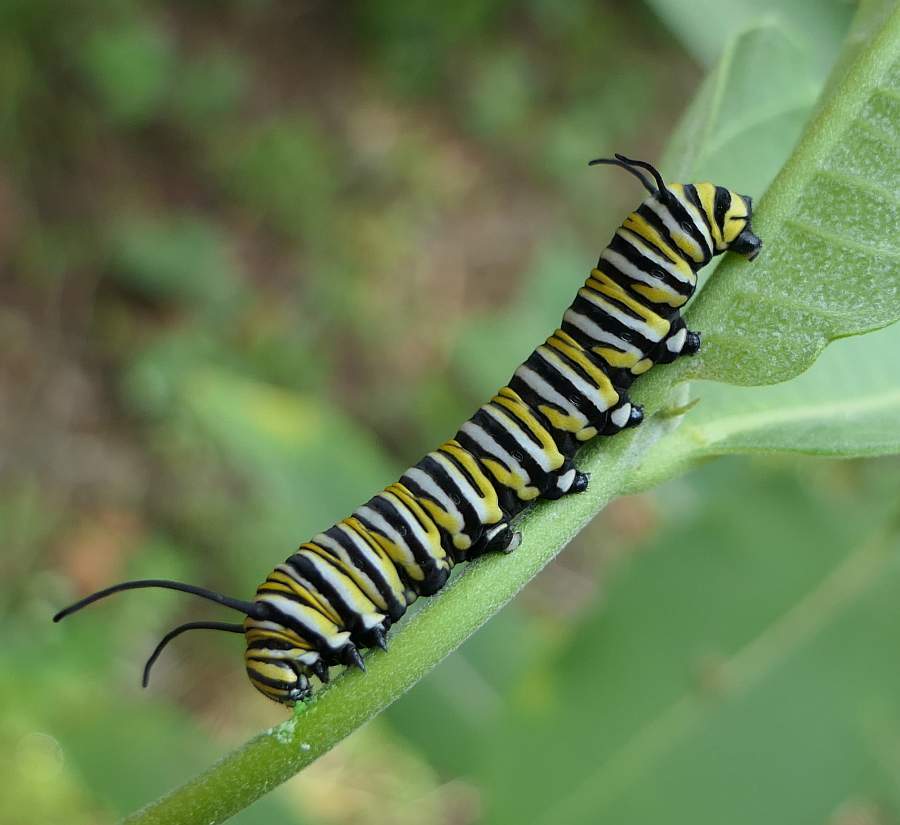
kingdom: Animalia
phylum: Arthropoda
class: Insecta
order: Lepidoptera
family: Nymphalidae
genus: Danaus
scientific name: Danaus plexippus
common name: Monarch
